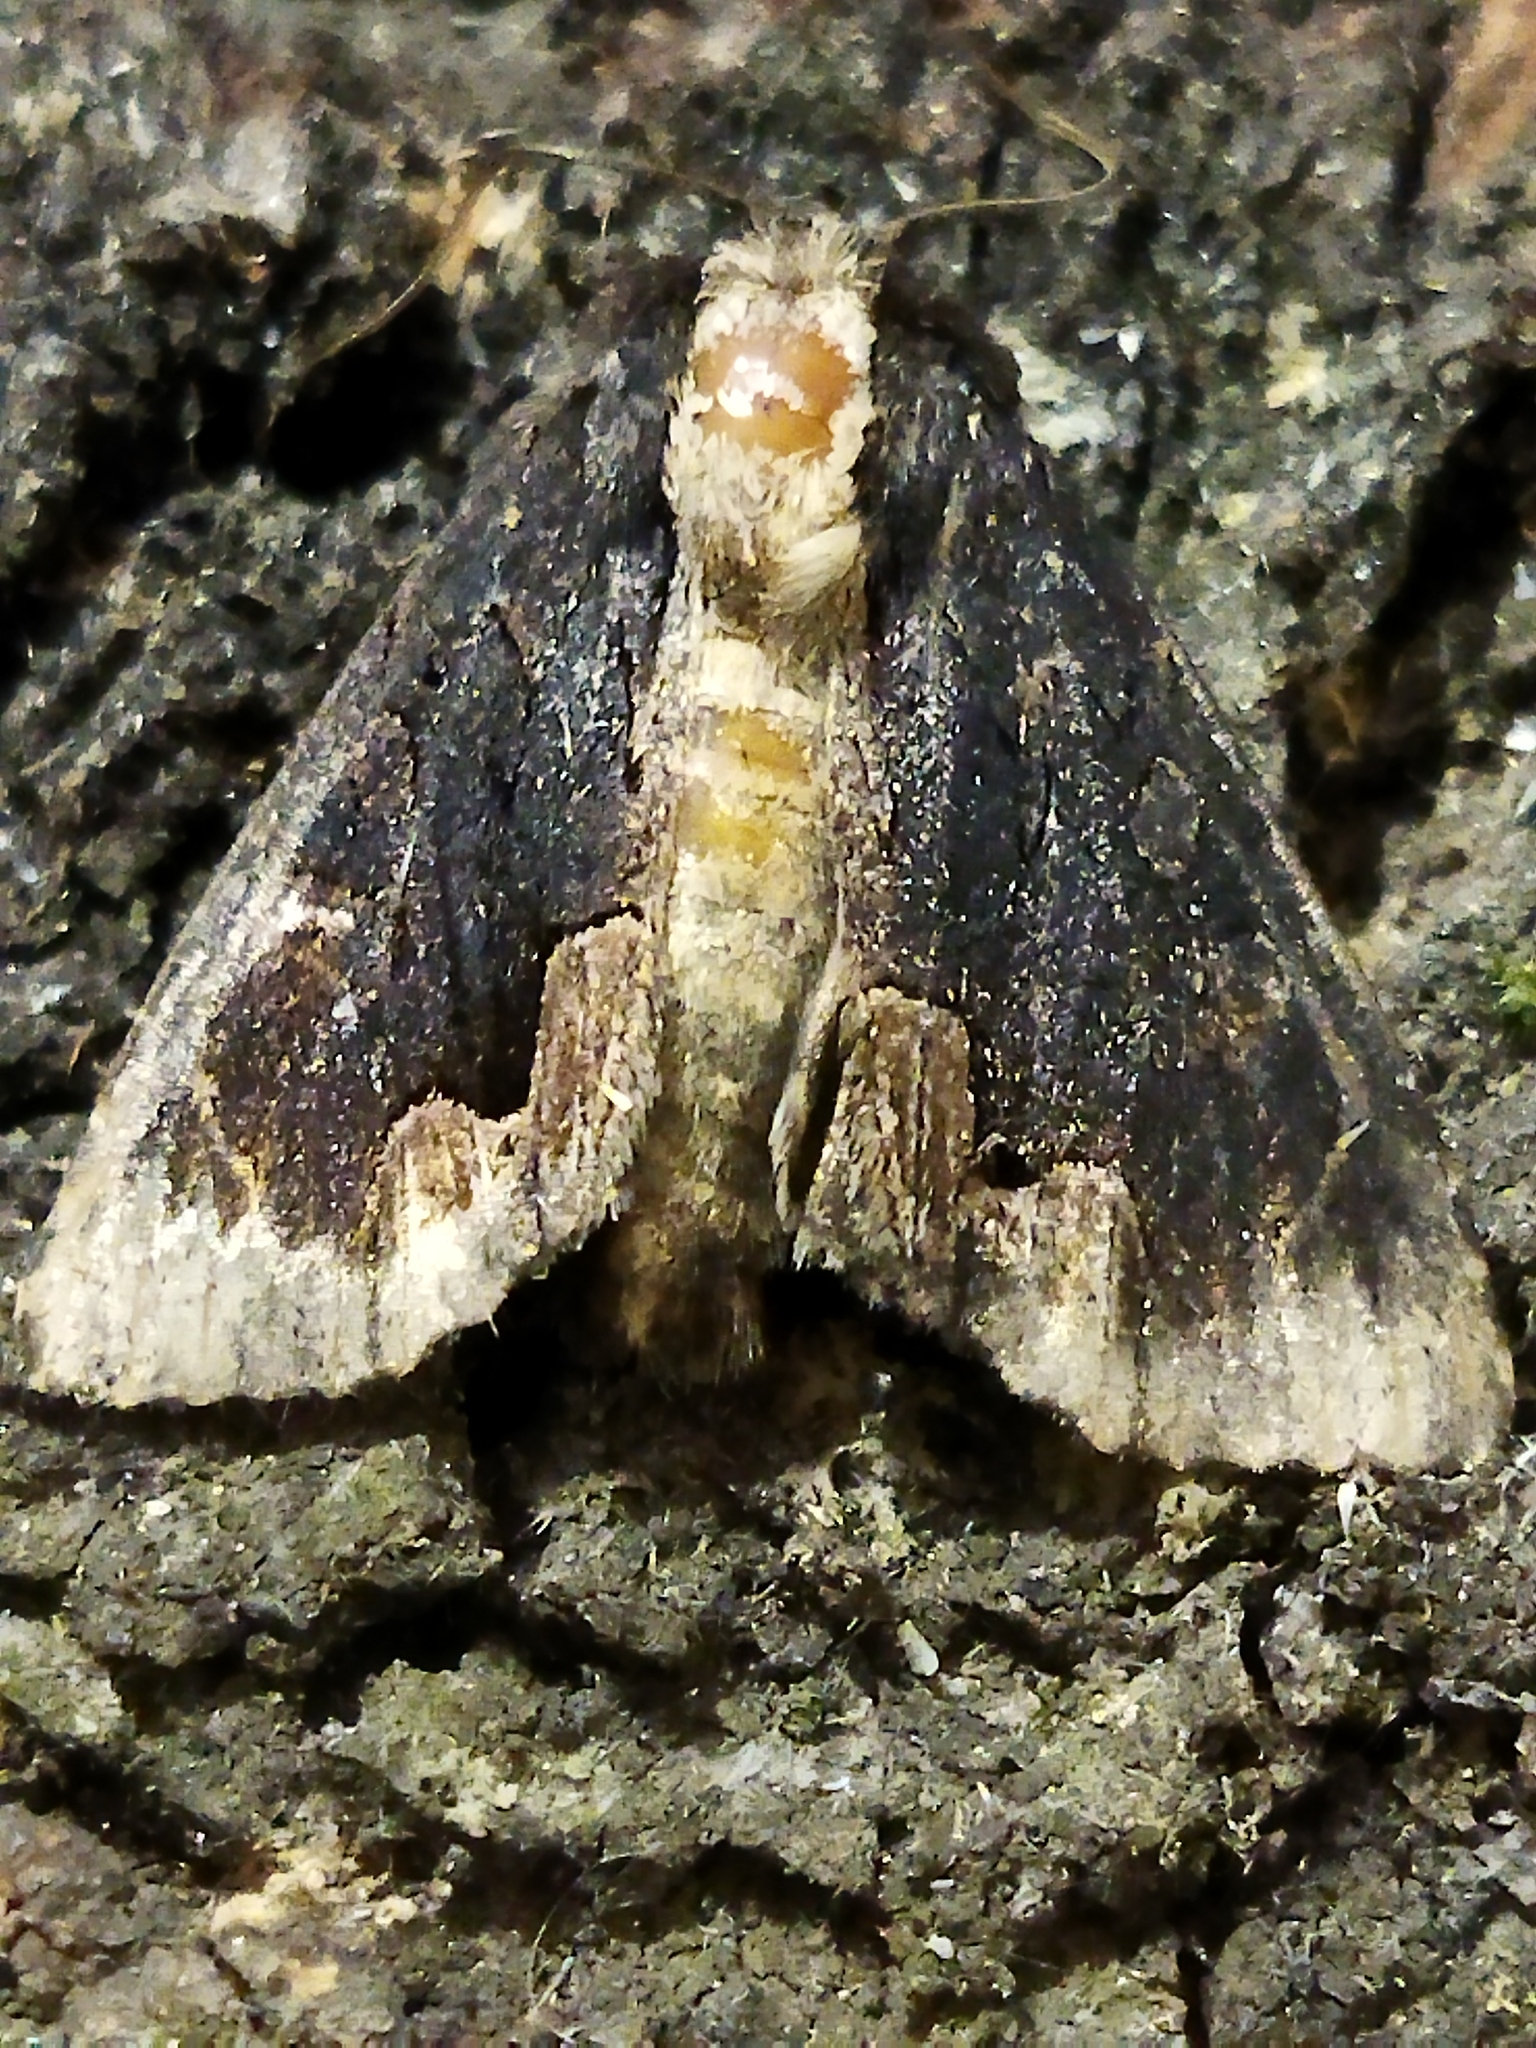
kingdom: Animalia
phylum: Arthropoda
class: Insecta
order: Lepidoptera
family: Noctuidae
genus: Dypterygia
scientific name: Dypterygia scabriuscula
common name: Bird's wing
